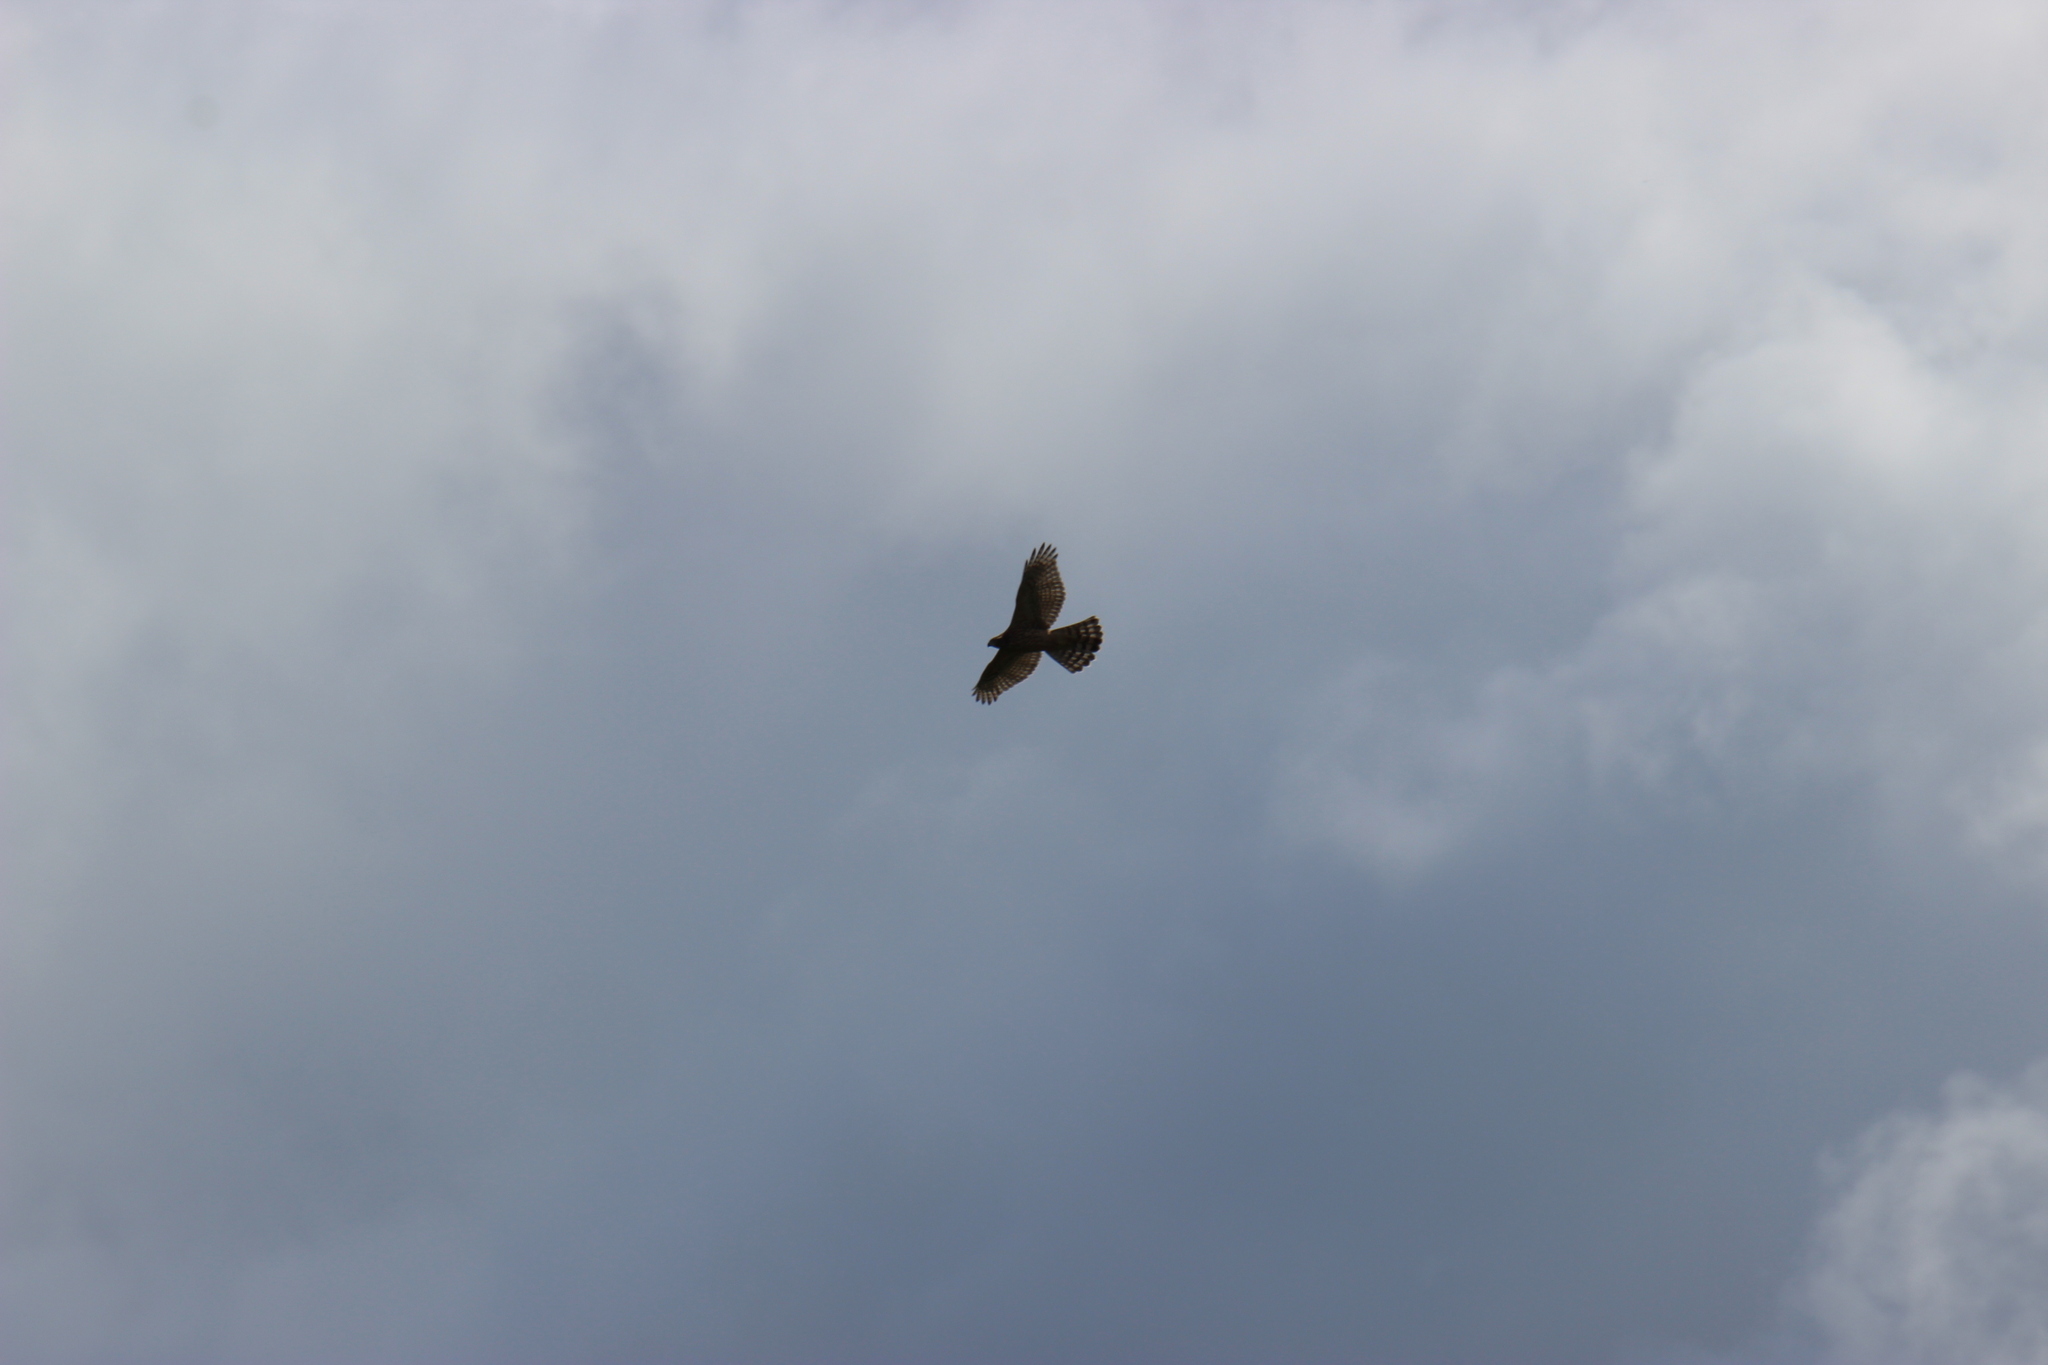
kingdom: Animalia
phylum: Chordata
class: Aves
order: Accipitriformes
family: Accipitridae
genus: Accipiter
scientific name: Accipiter gentilis
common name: Northern goshawk
